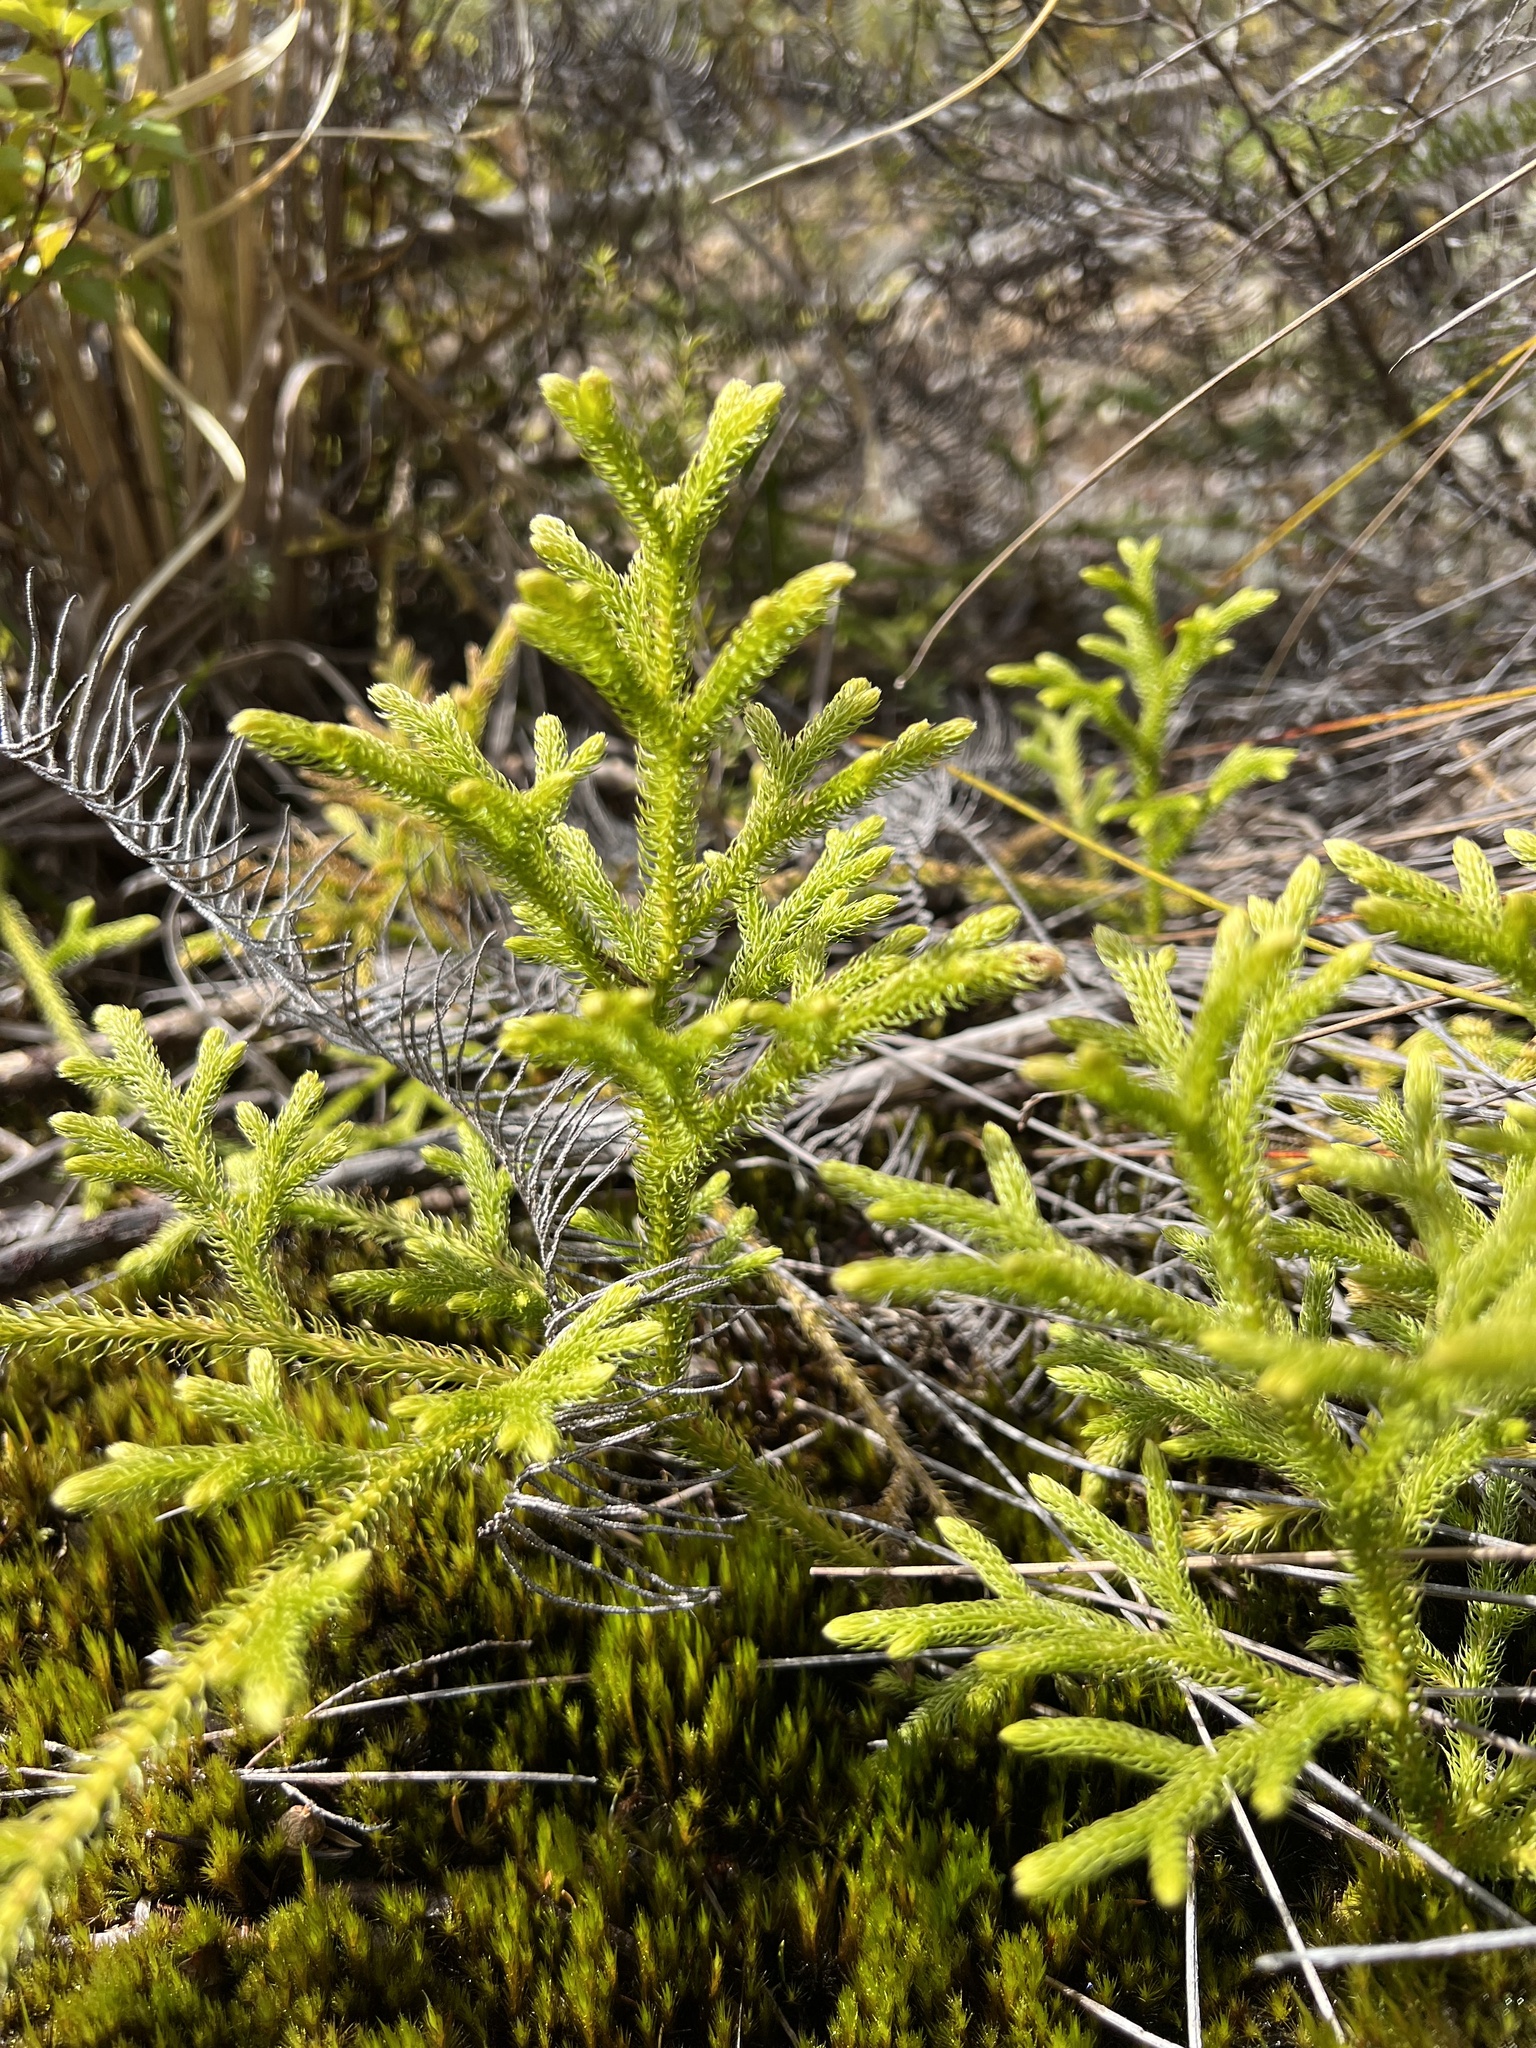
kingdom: Plantae
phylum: Tracheophyta
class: Lycopodiopsida
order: Lycopodiales
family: Lycopodiaceae
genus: Palhinhaea
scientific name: Palhinhaea cernua
